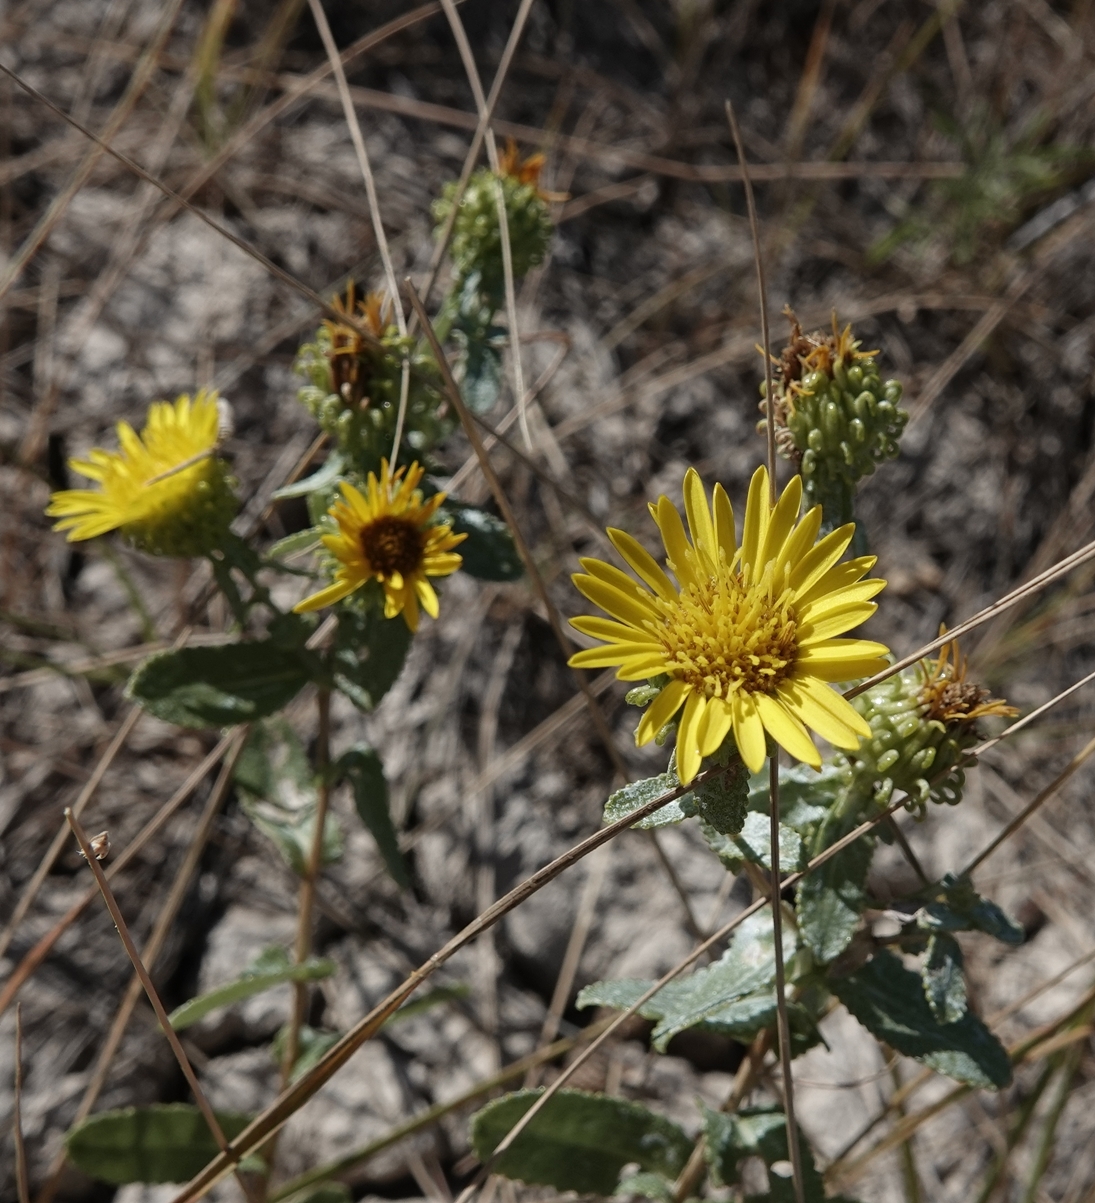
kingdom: Plantae
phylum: Tracheophyta
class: Magnoliopsida
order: Asterales
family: Asteraceae
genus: Grindelia
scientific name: Grindelia squarrosa
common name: Curly-cup gumweed
